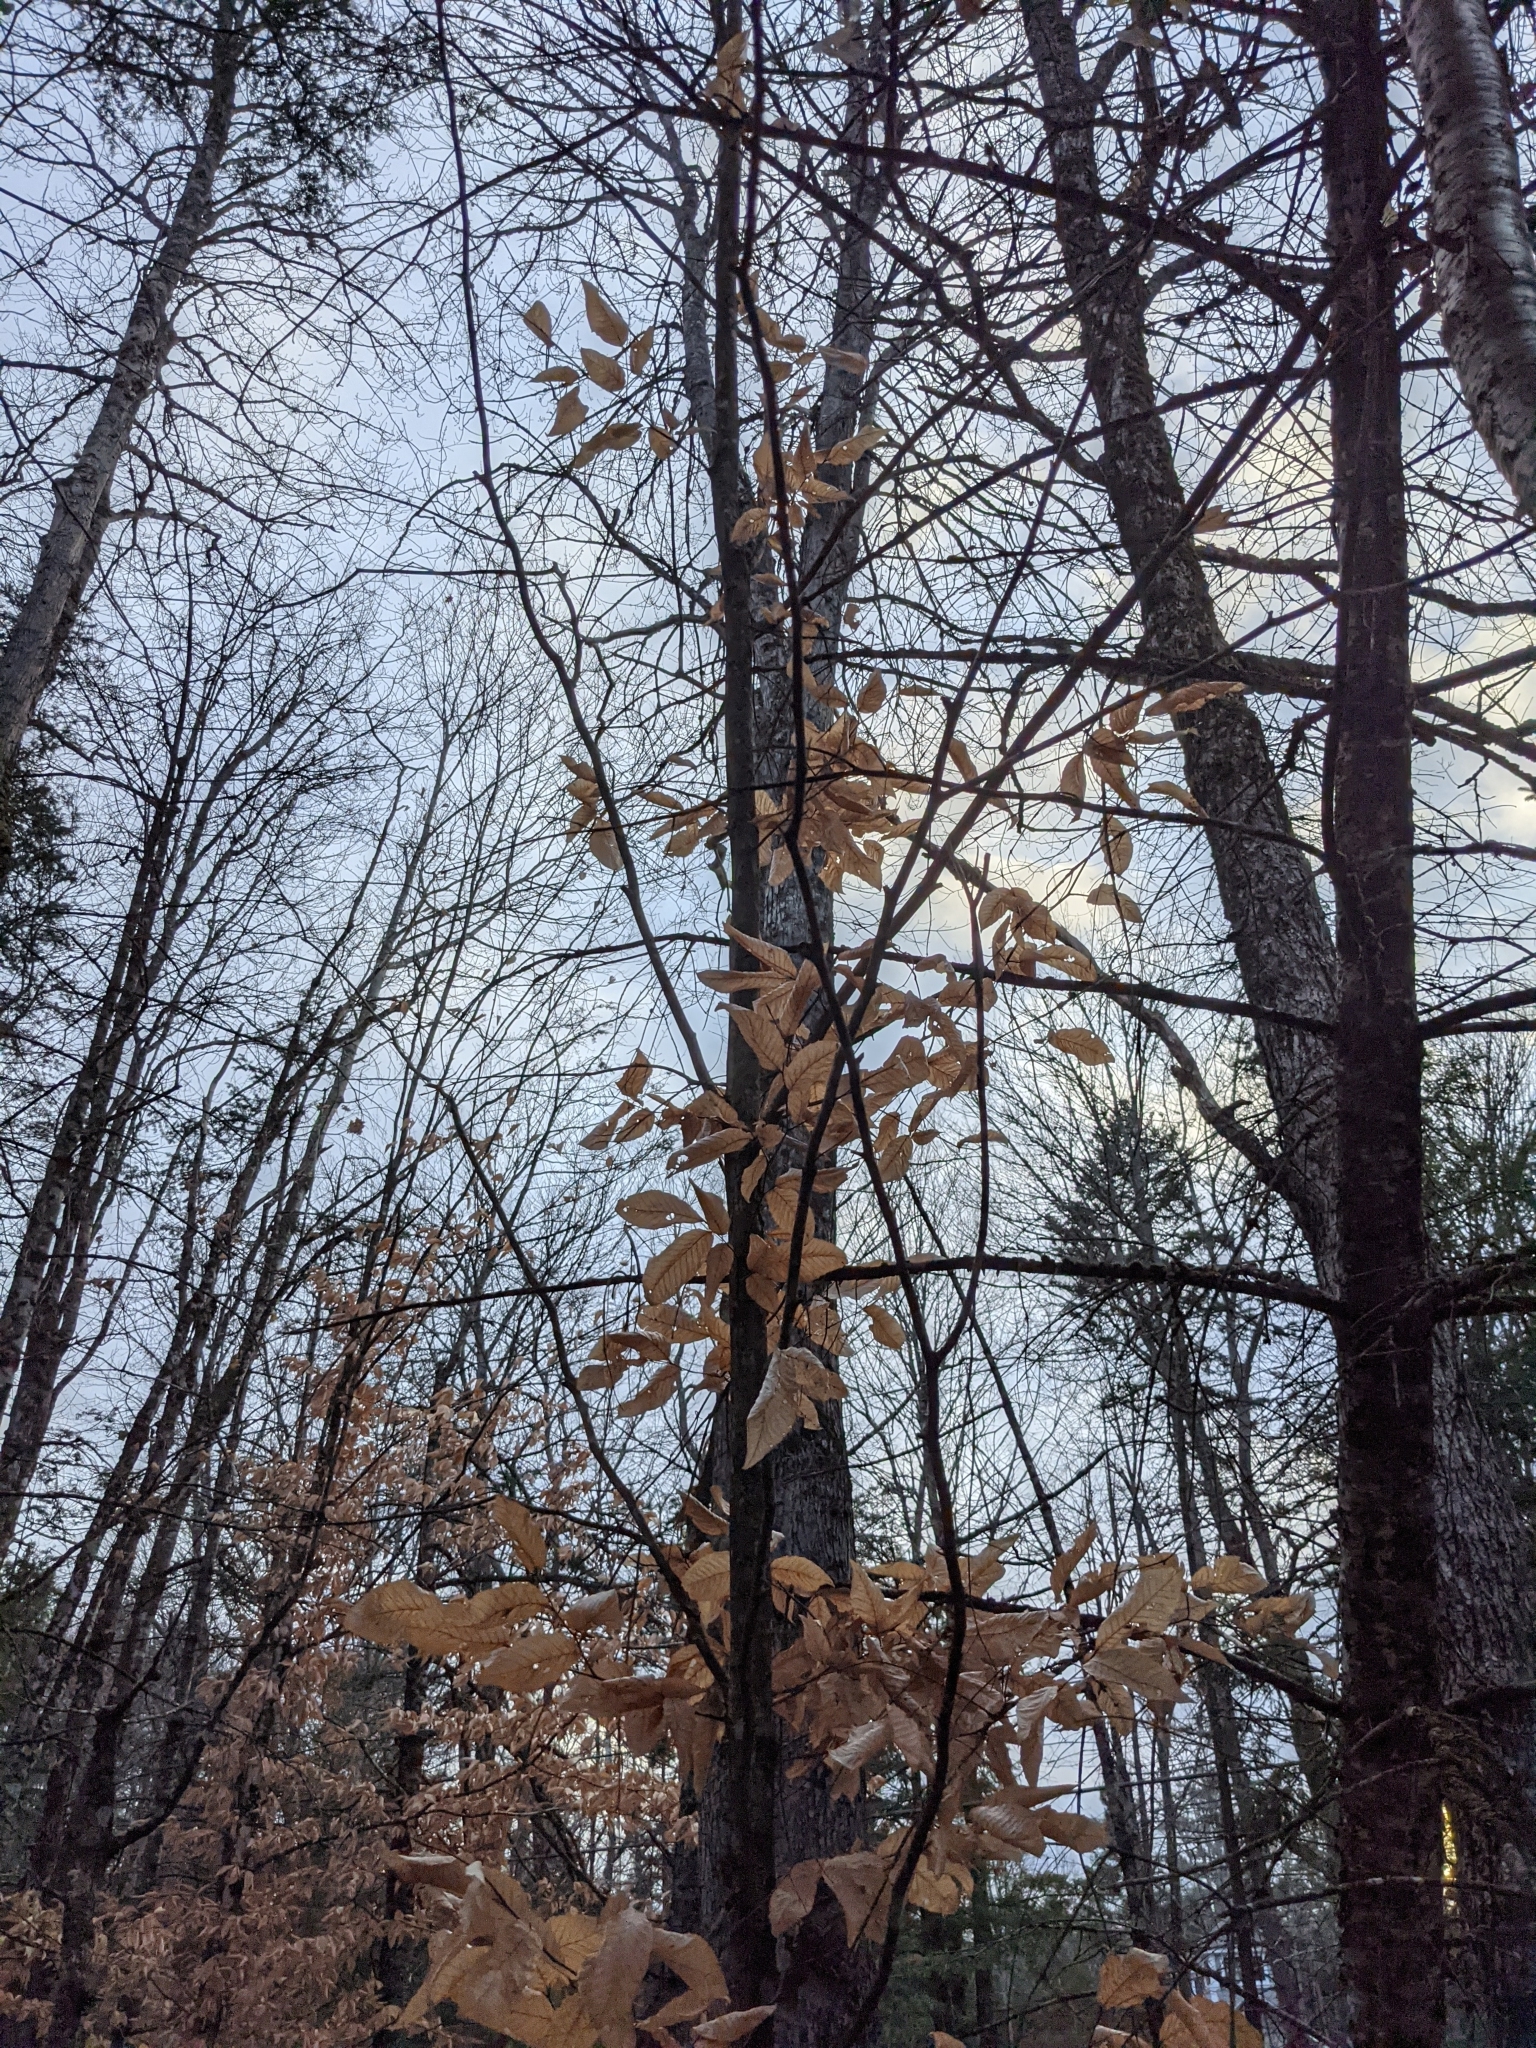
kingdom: Plantae
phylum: Tracheophyta
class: Magnoliopsida
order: Fagales
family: Fagaceae
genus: Fagus
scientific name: Fagus grandifolia
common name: American beech
